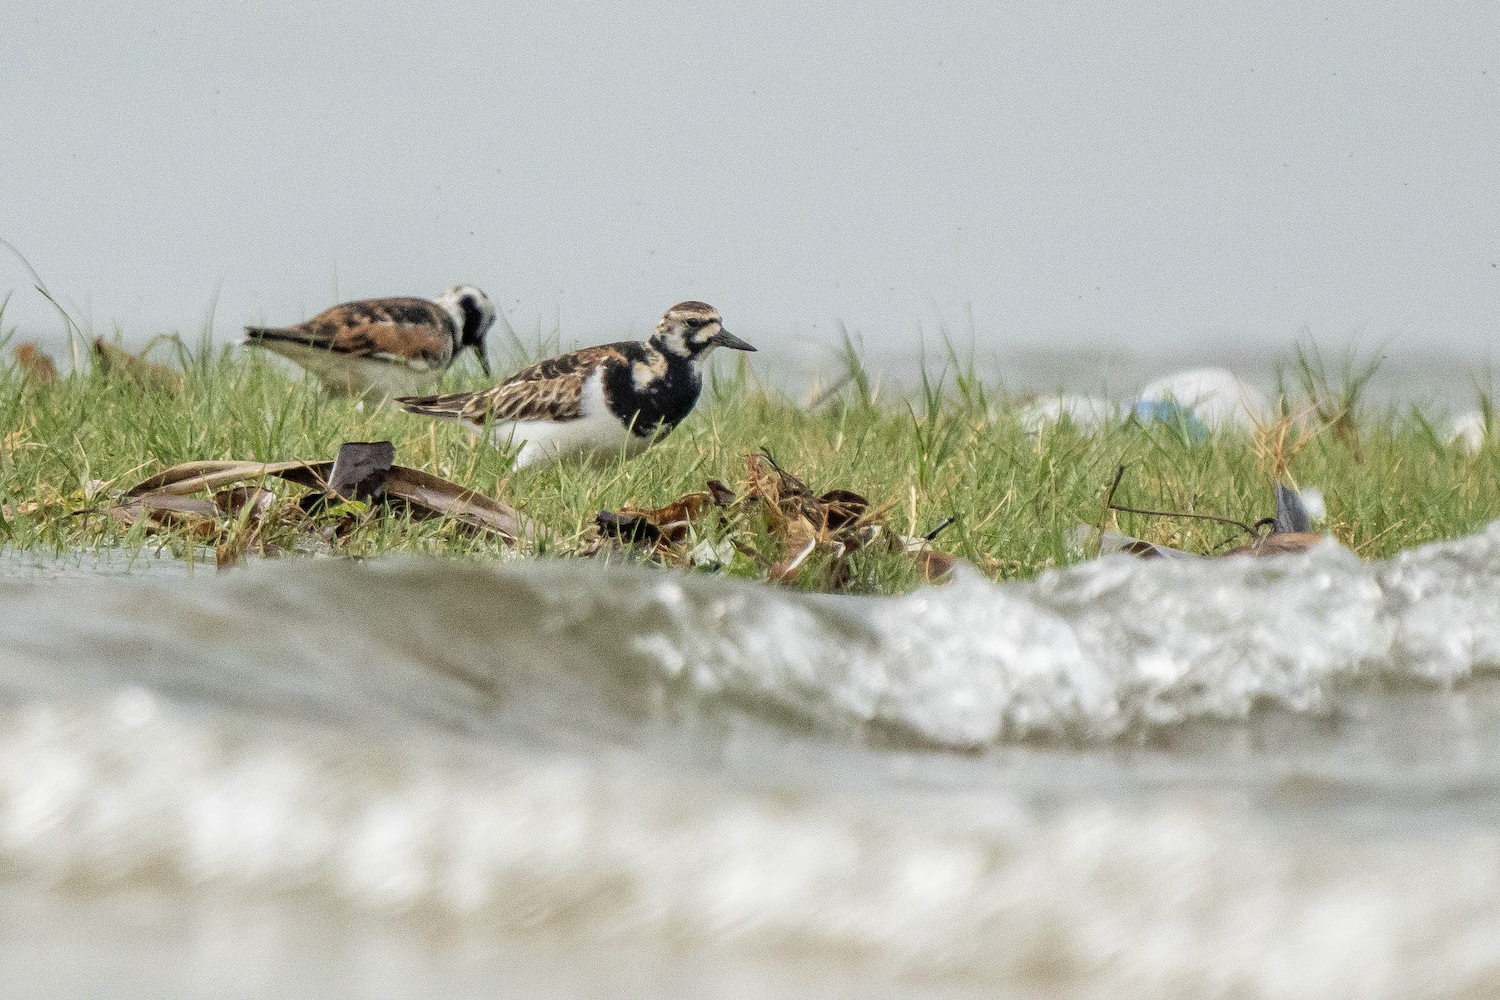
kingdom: Animalia
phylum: Chordata
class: Aves
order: Charadriiformes
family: Scolopacidae
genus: Arenaria
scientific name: Arenaria interpres
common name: Ruddy turnstone
